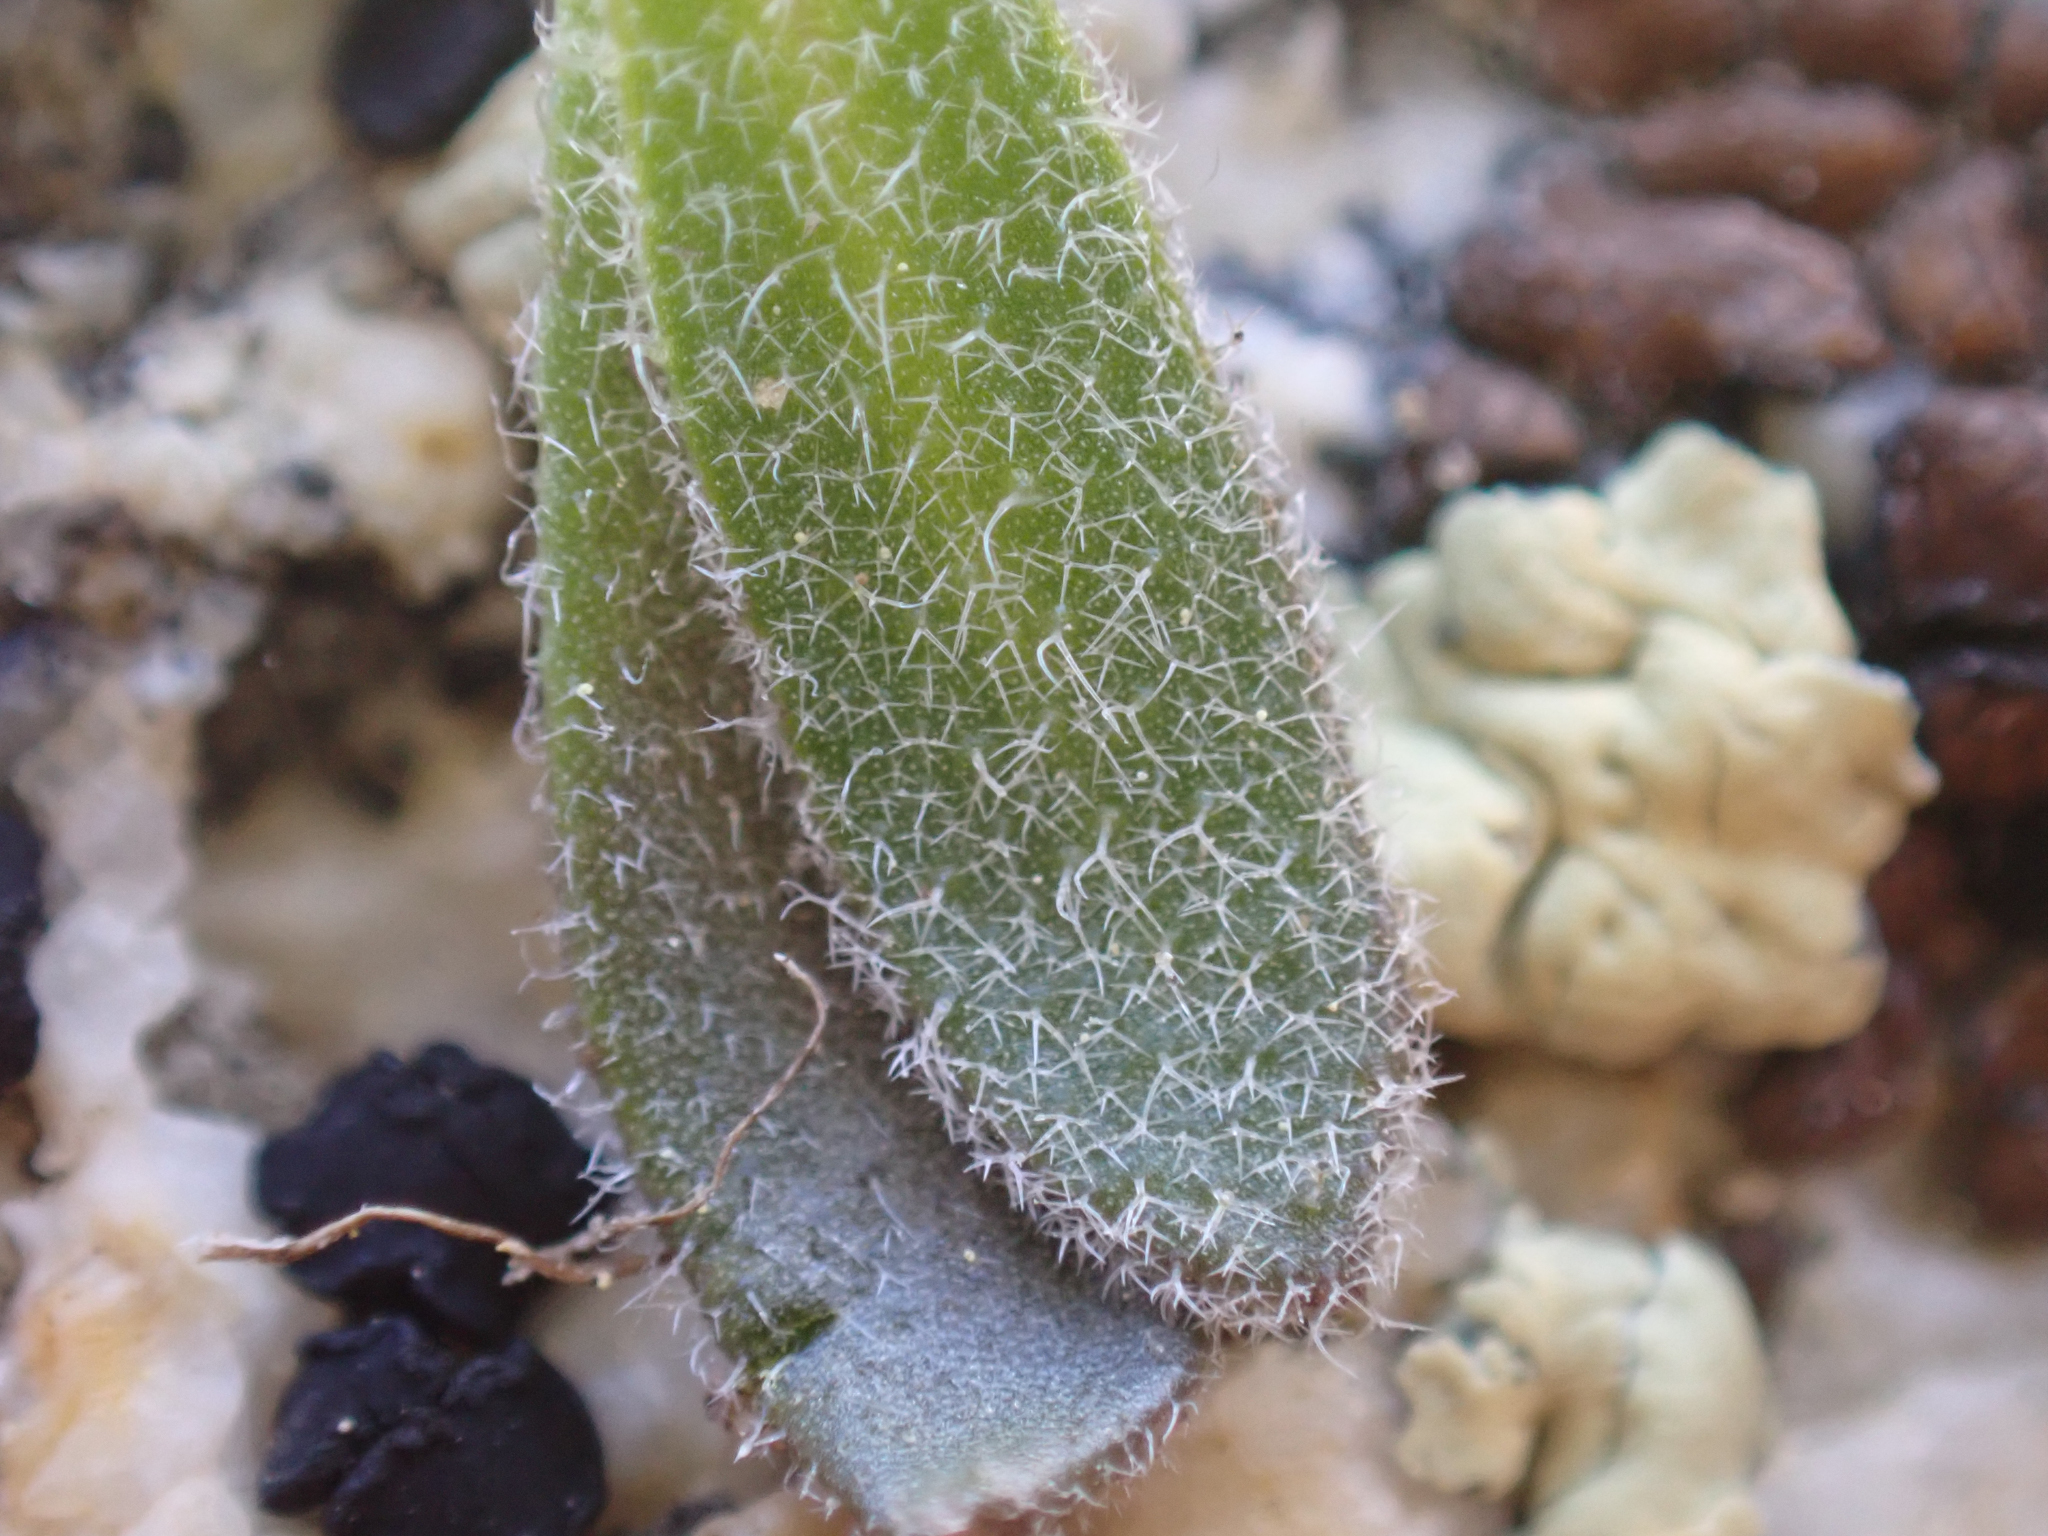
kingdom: Plantae
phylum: Tracheophyta
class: Magnoliopsida
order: Brassicales
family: Brassicaceae
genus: Draba
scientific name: Draba californica
